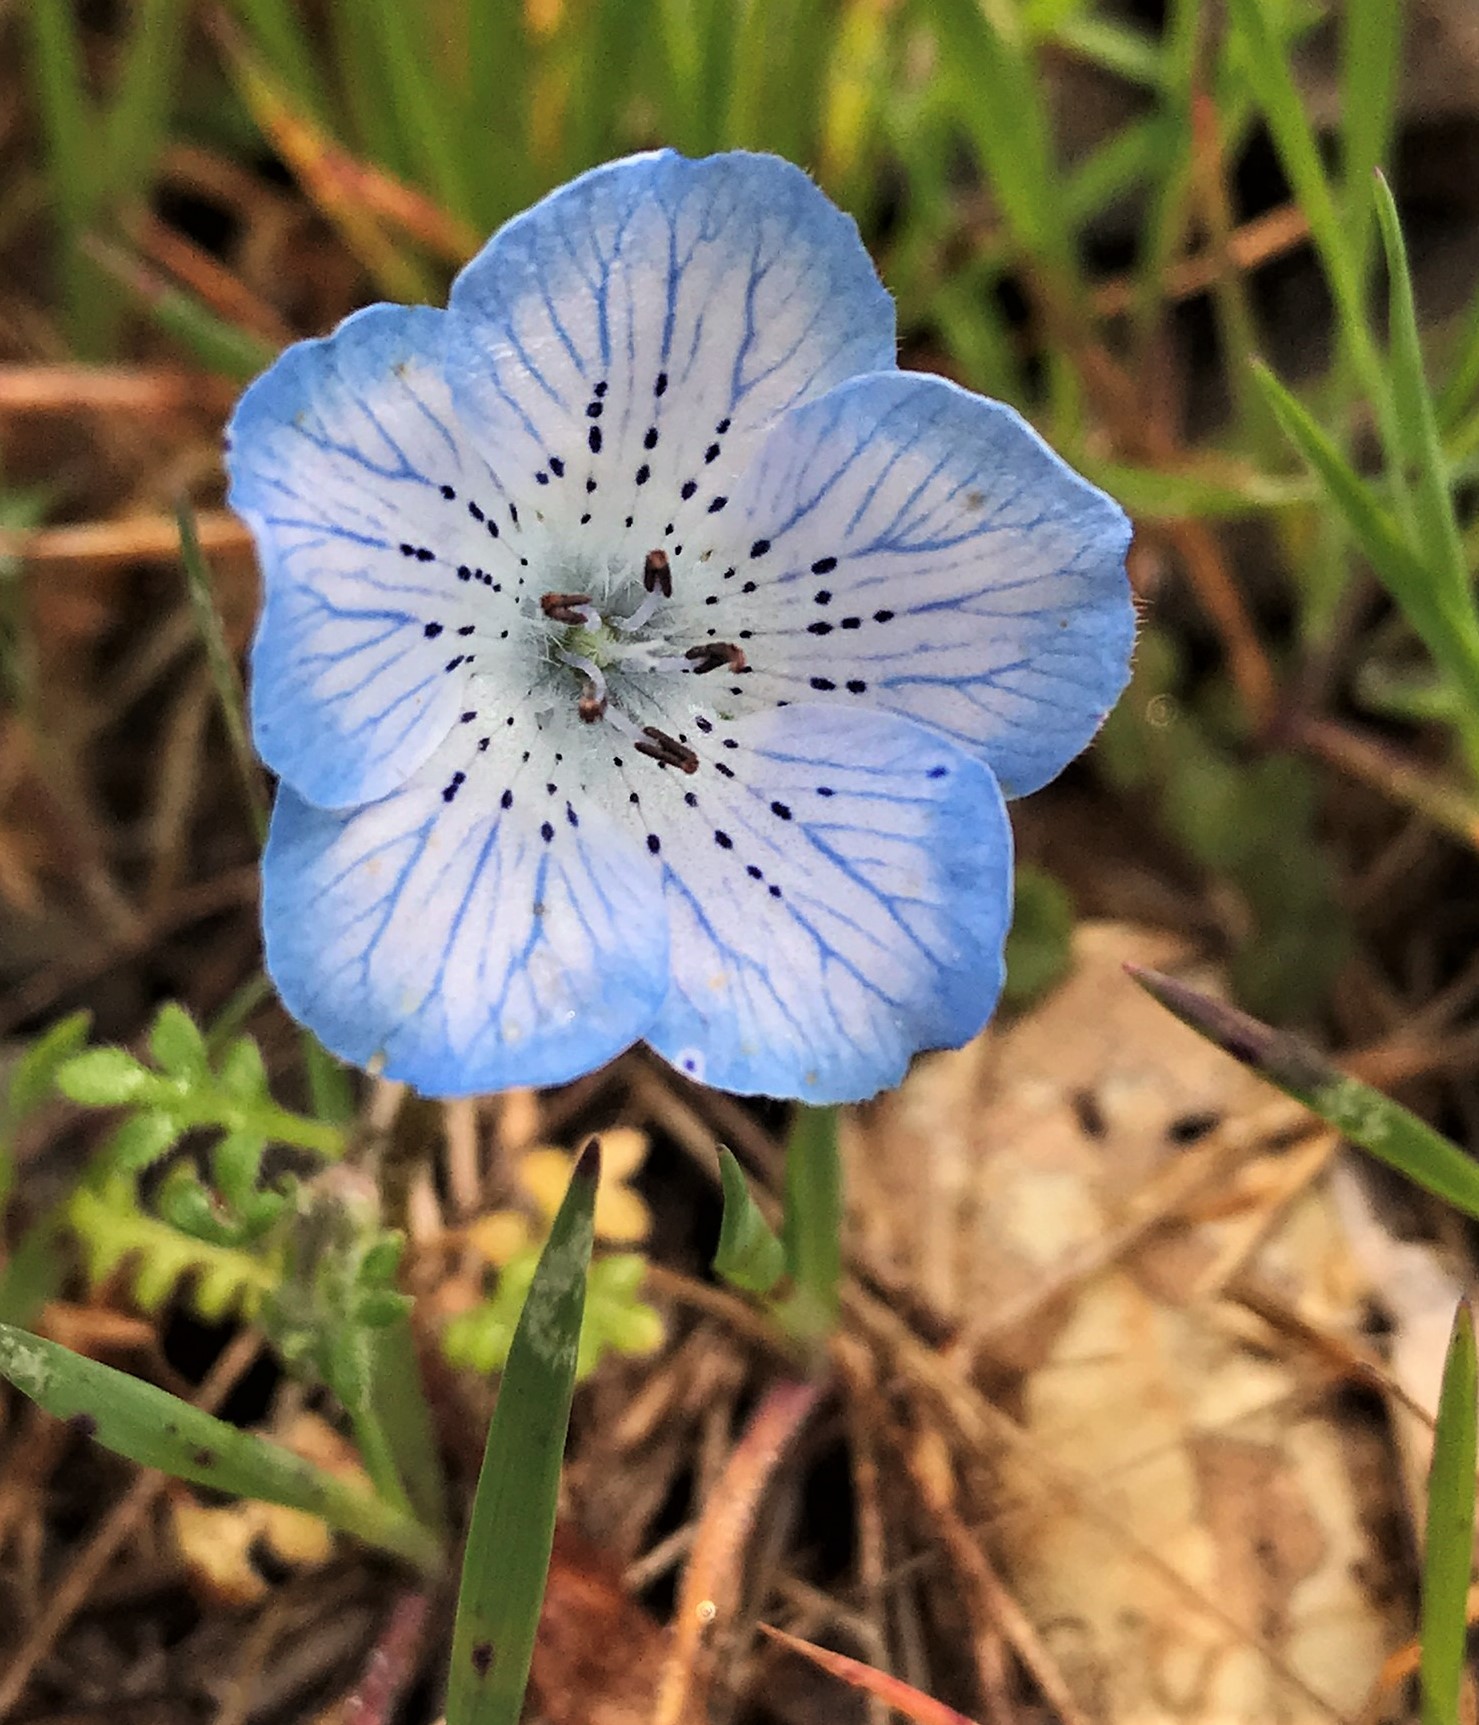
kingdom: Plantae
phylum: Tracheophyta
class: Magnoliopsida
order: Boraginales
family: Hydrophyllaceae
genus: Nemophila
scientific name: Nemophila menziesii
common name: Baby's-blue-eyes
